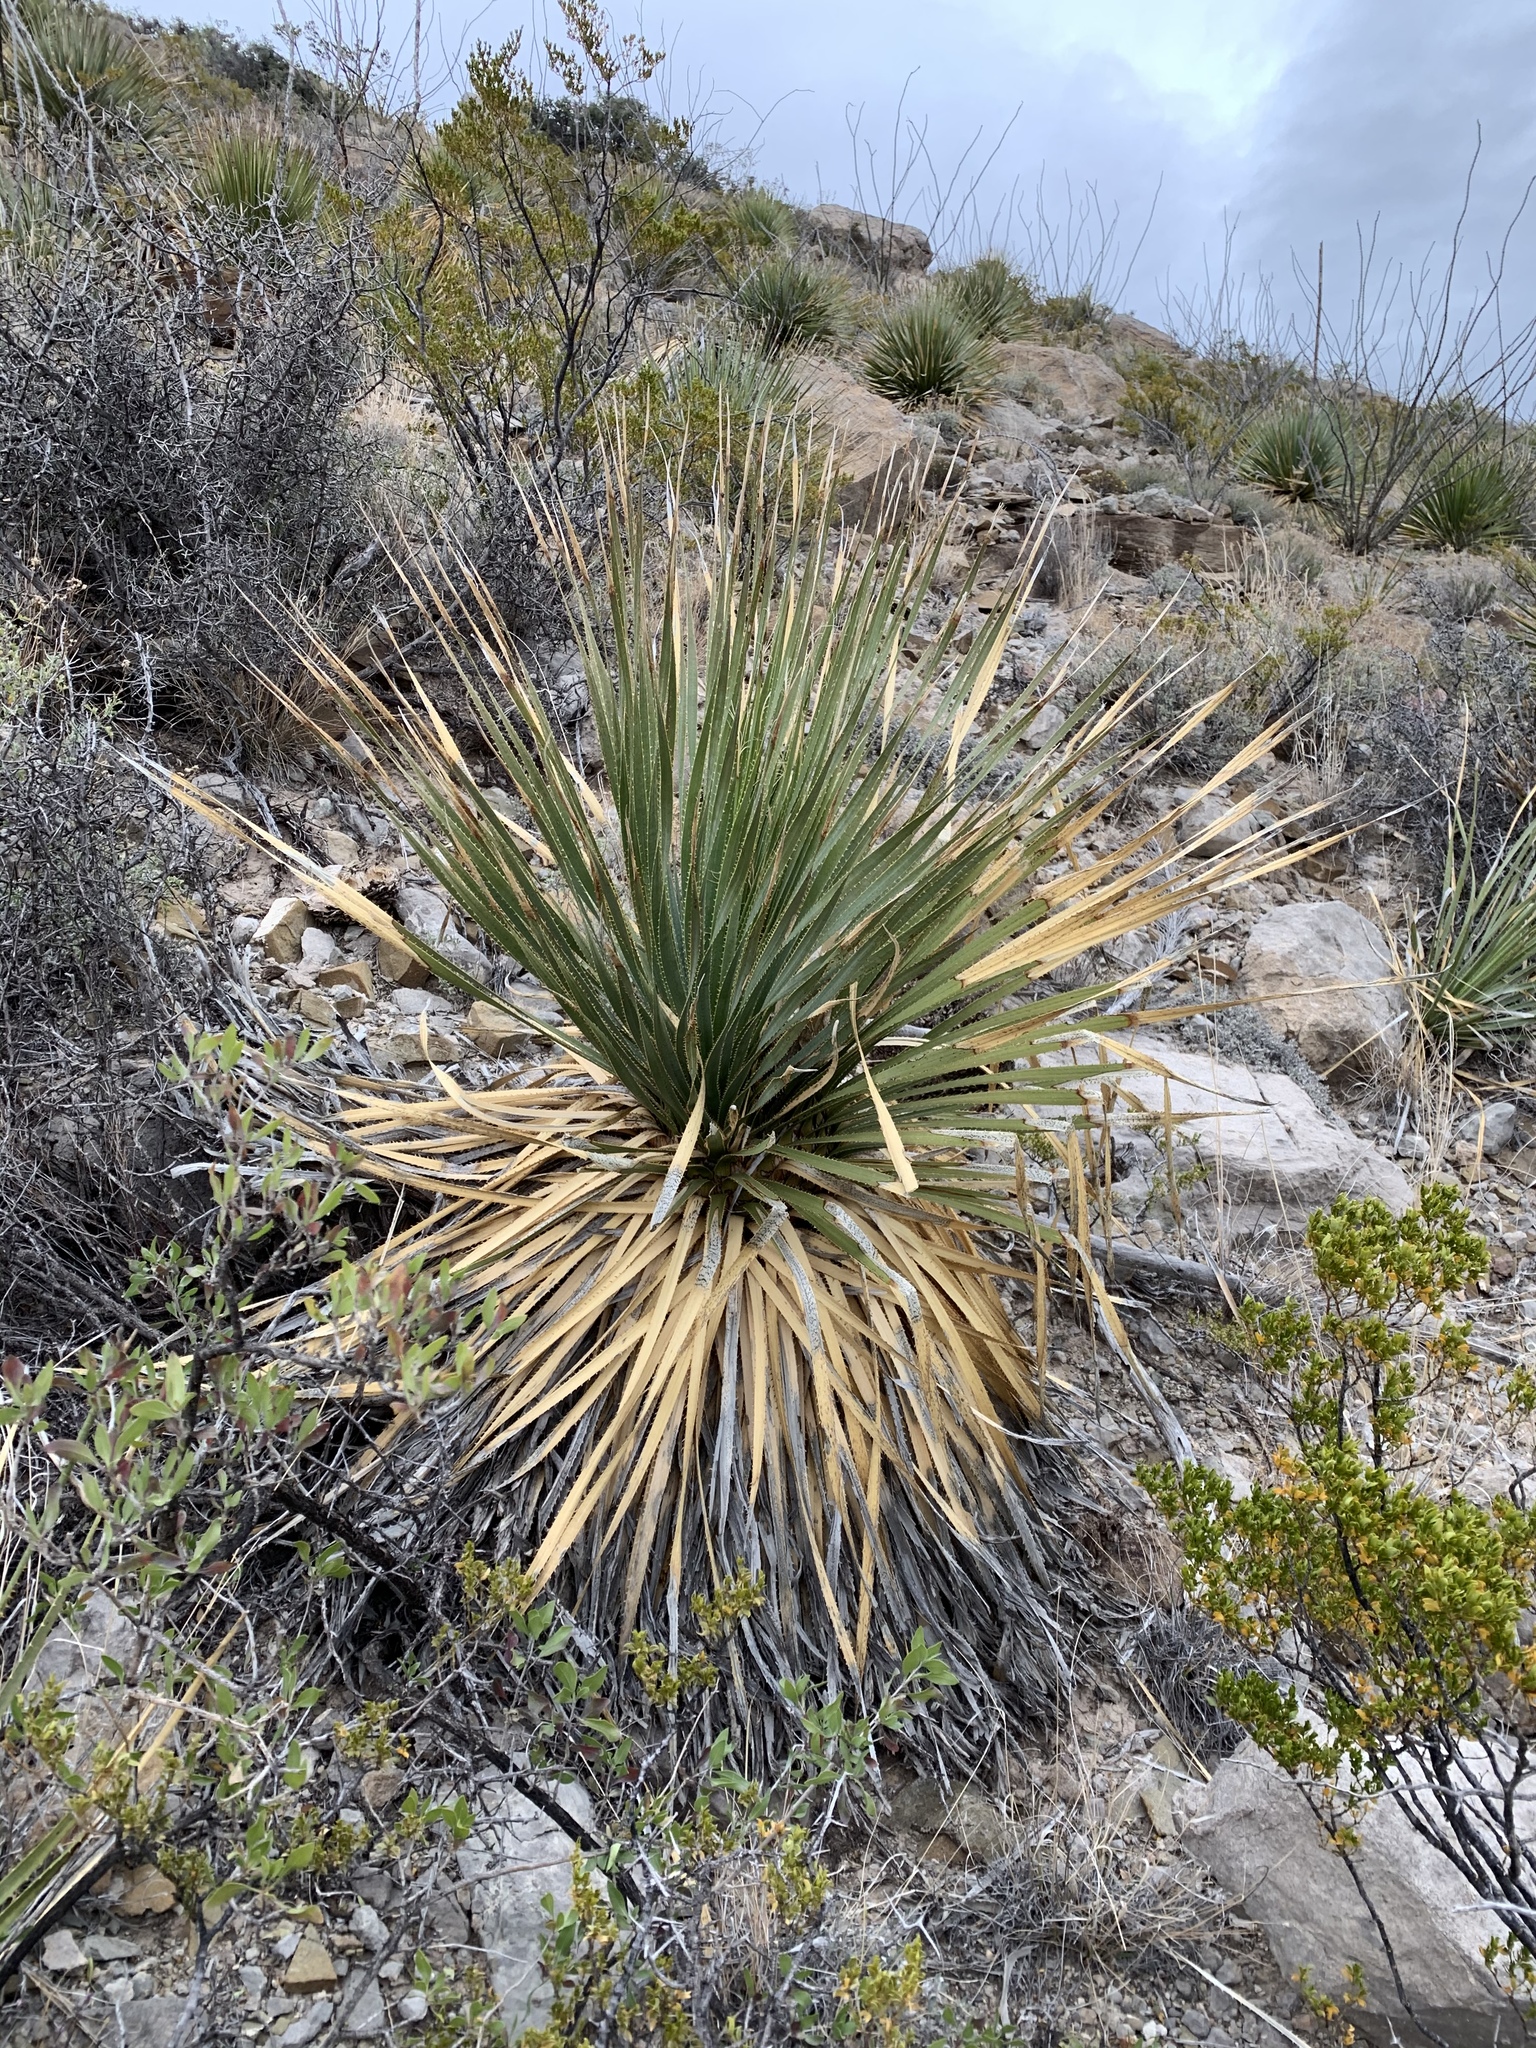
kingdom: Plantae
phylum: Tracheophyta
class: Liliopsida
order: Asparagales
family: Asparagaceae
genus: Dasylirion
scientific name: Dasylirion wheeleri
